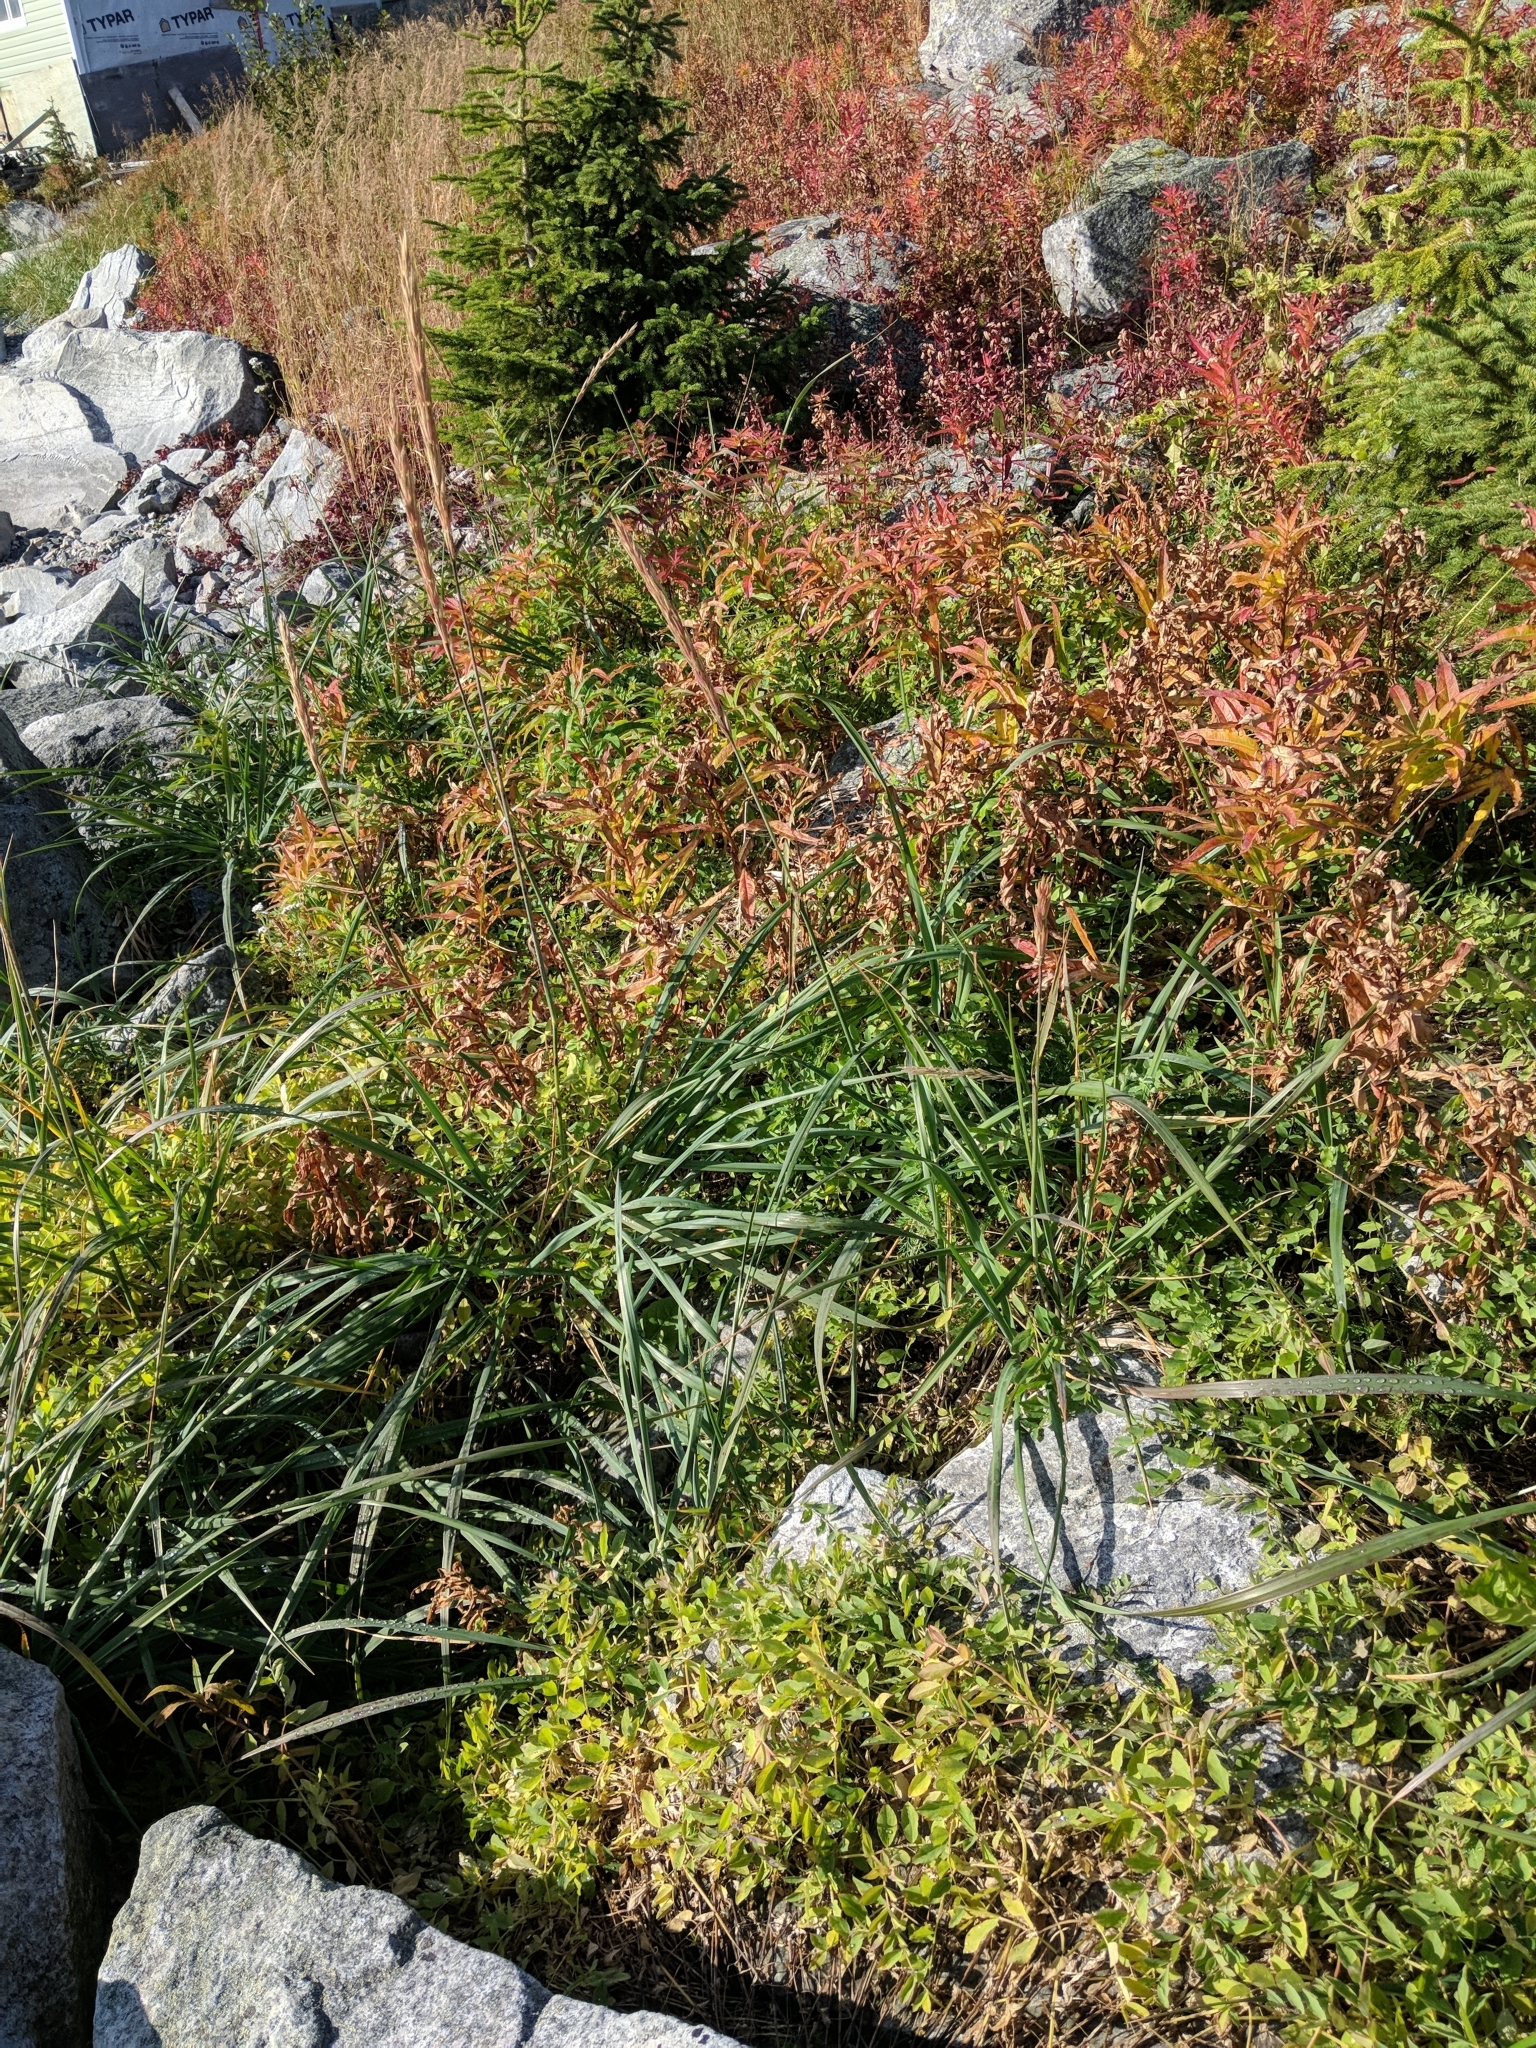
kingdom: Plantae
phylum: Tracheophyta
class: Magnoliopsida
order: Fabales
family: Fabaceae
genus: Lathyrus
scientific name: Lathyrus japonicus
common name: Sea pea
